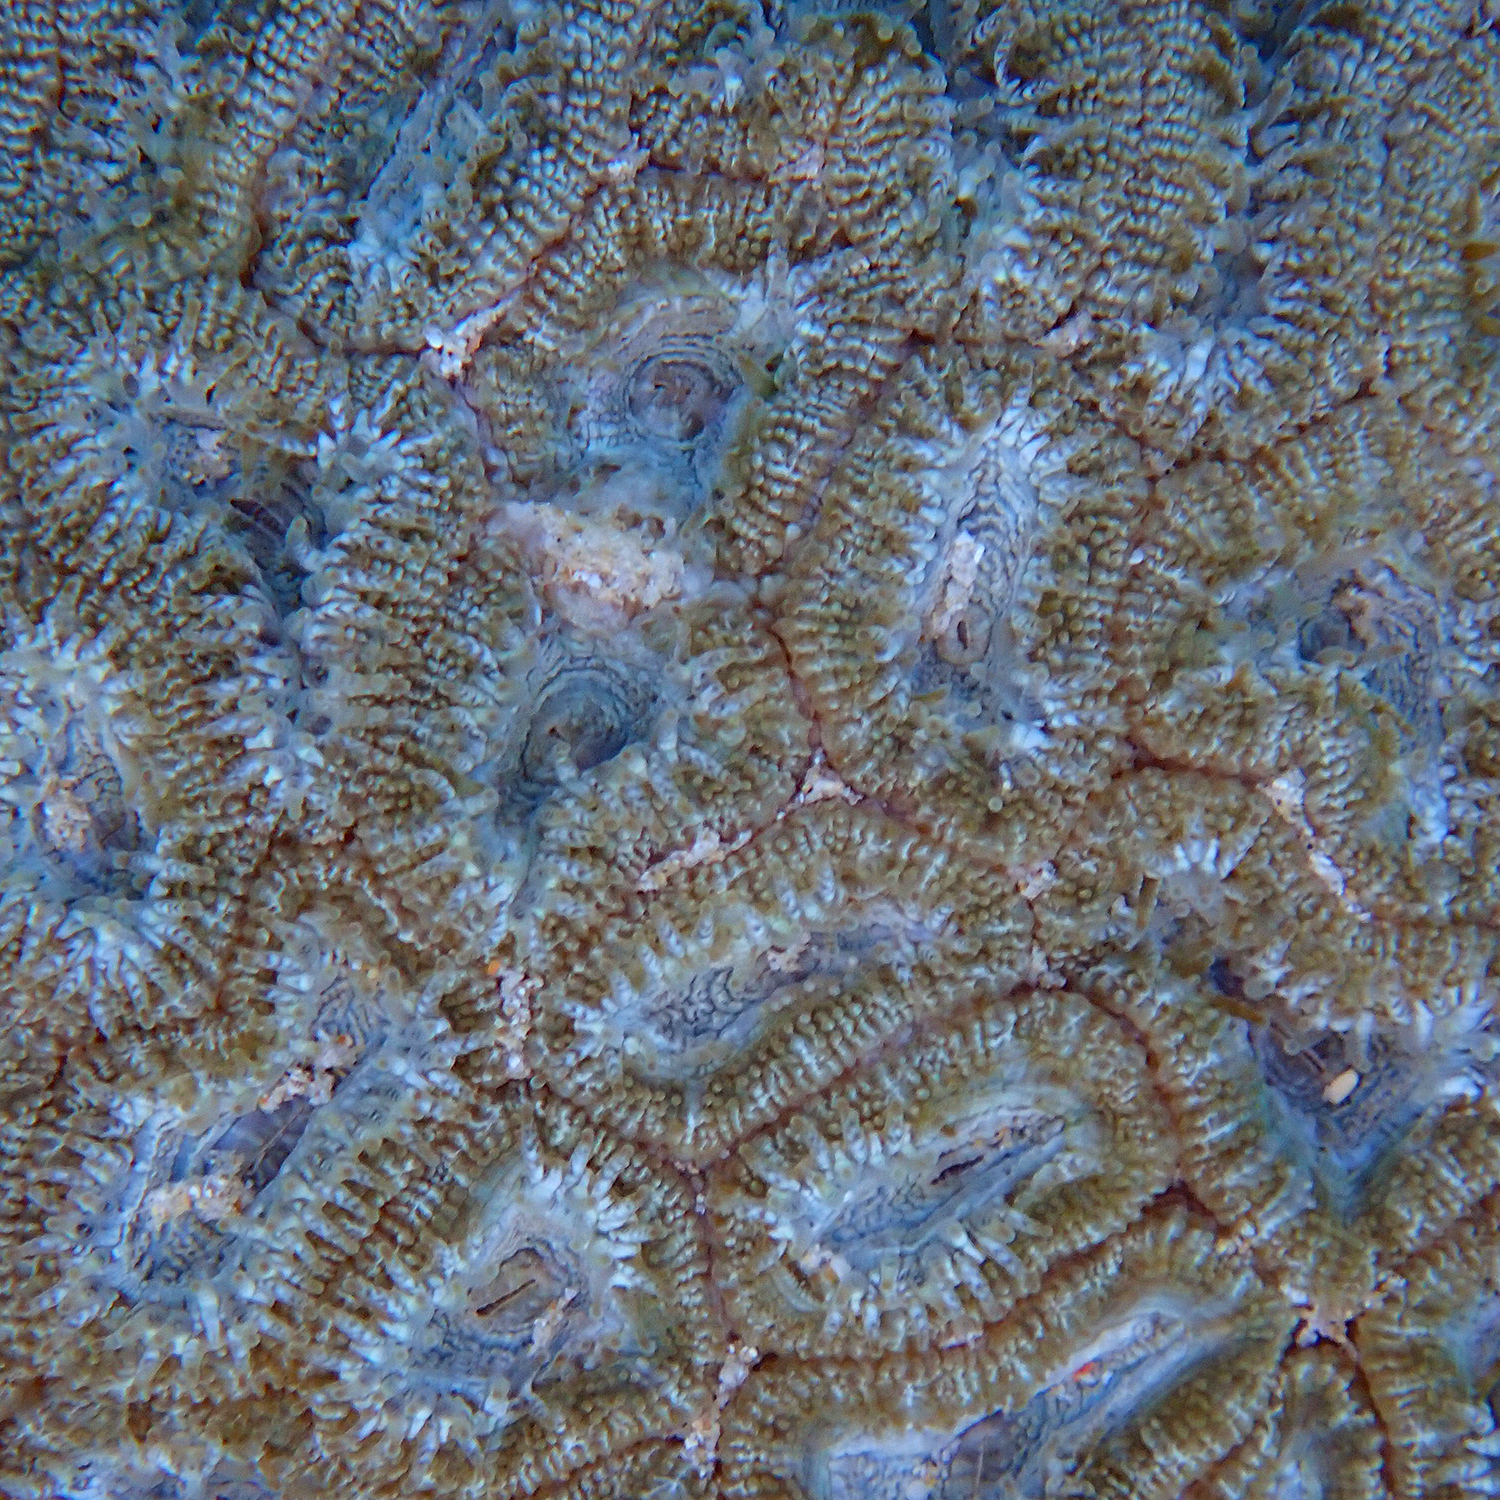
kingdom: Animalia
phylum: Cnidaria
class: Anthozoa
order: Scleractinia
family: Lobophylliidae
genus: Micromussa
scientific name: Micromussa lordhowensis
